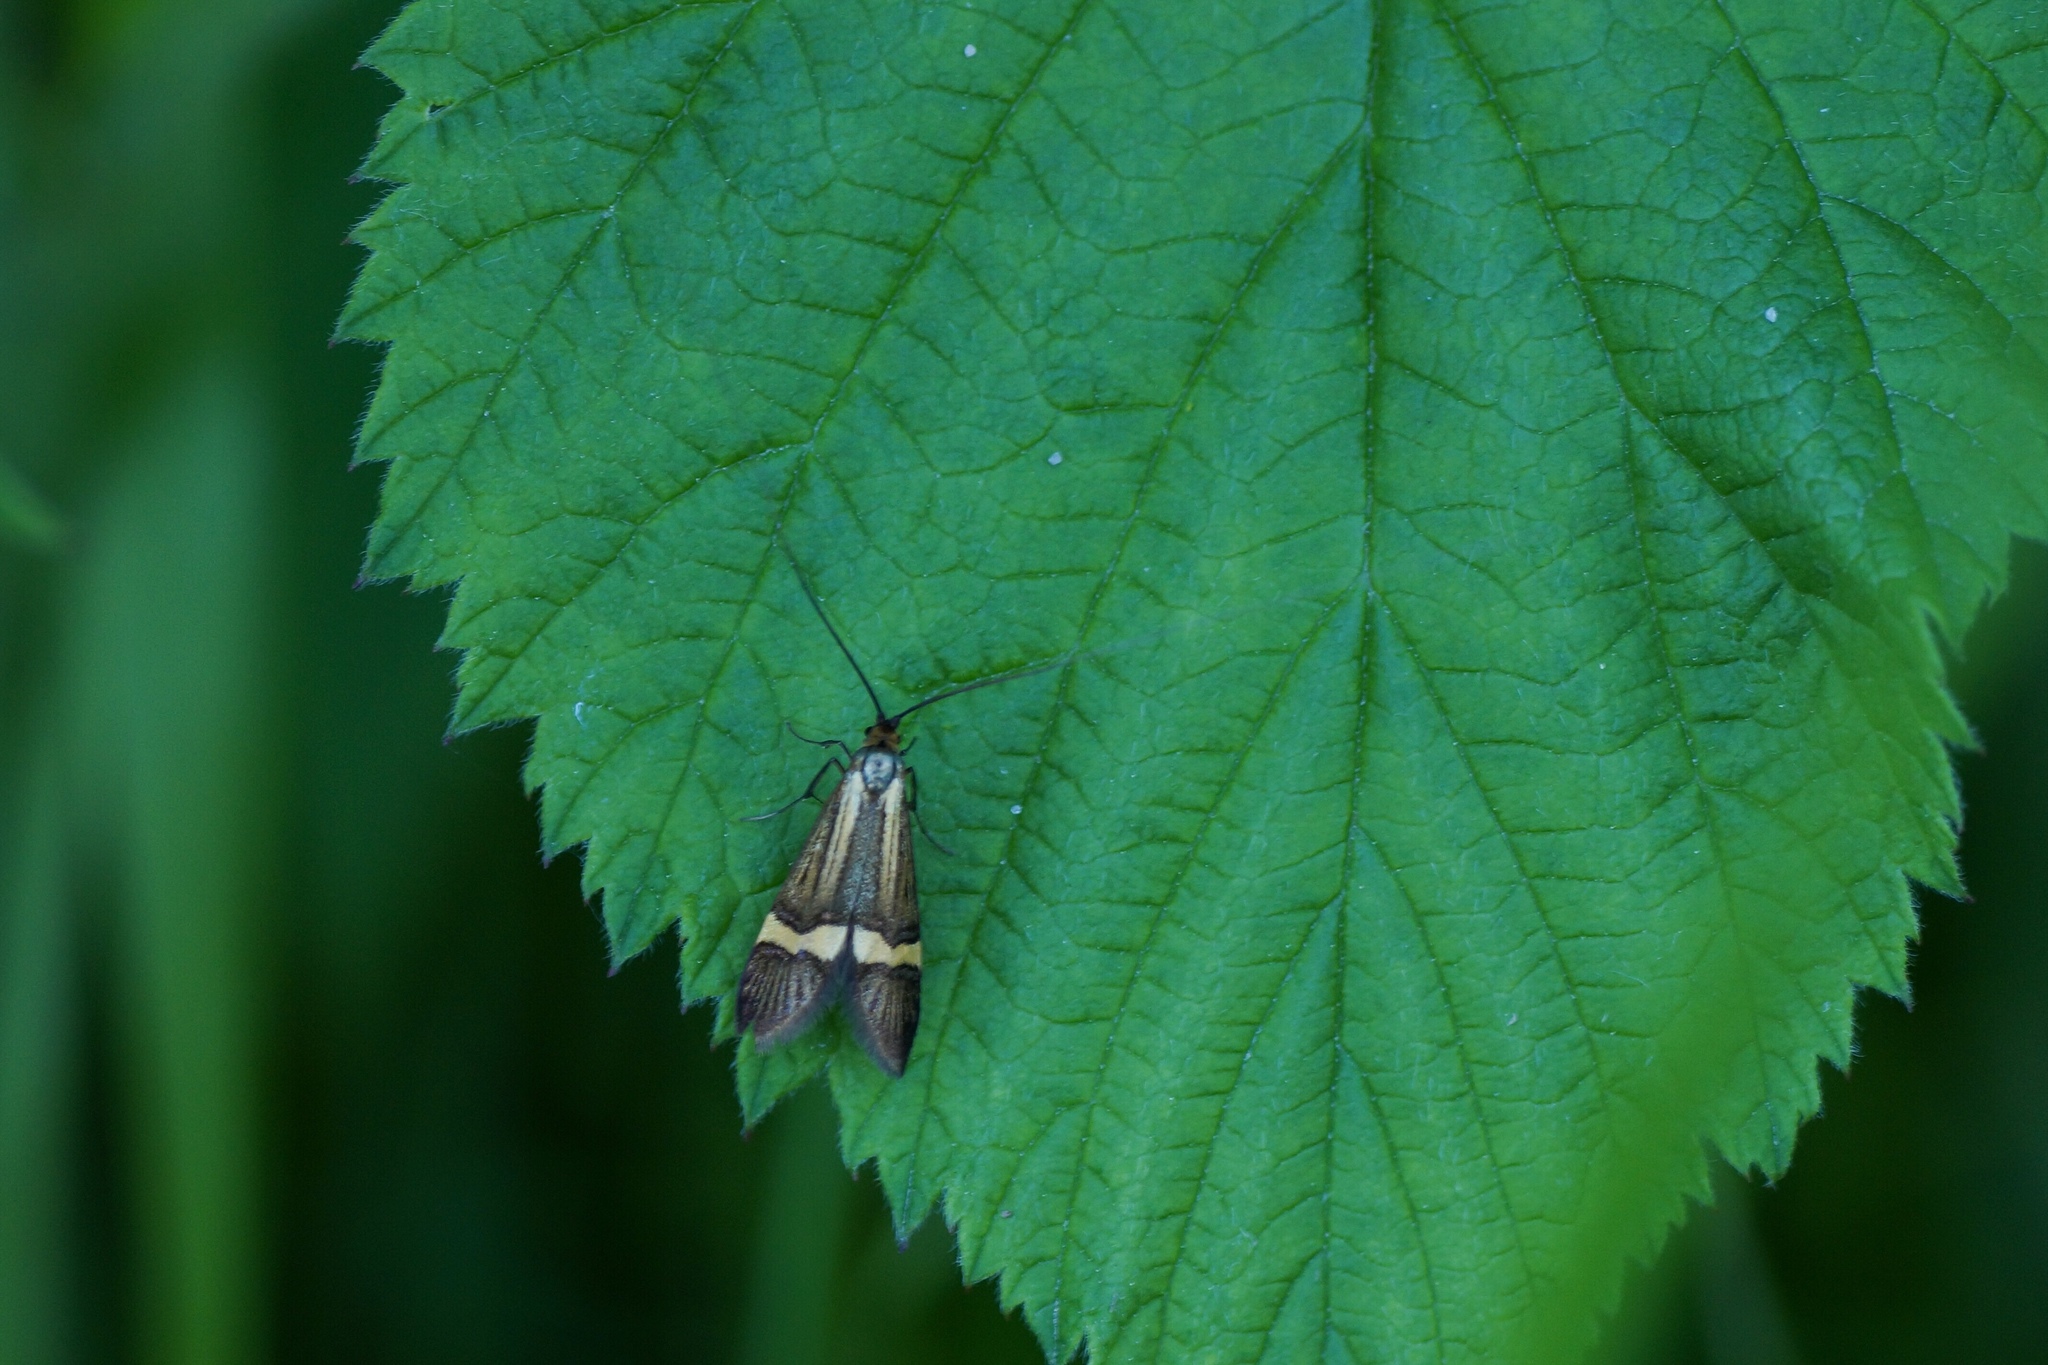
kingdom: Animalia
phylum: Arthropoda
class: Insecta
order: Lepidoptera
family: Adelidae
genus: Nemophora
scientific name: Nemophora degeerella
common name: Yellow-barred long-horn
